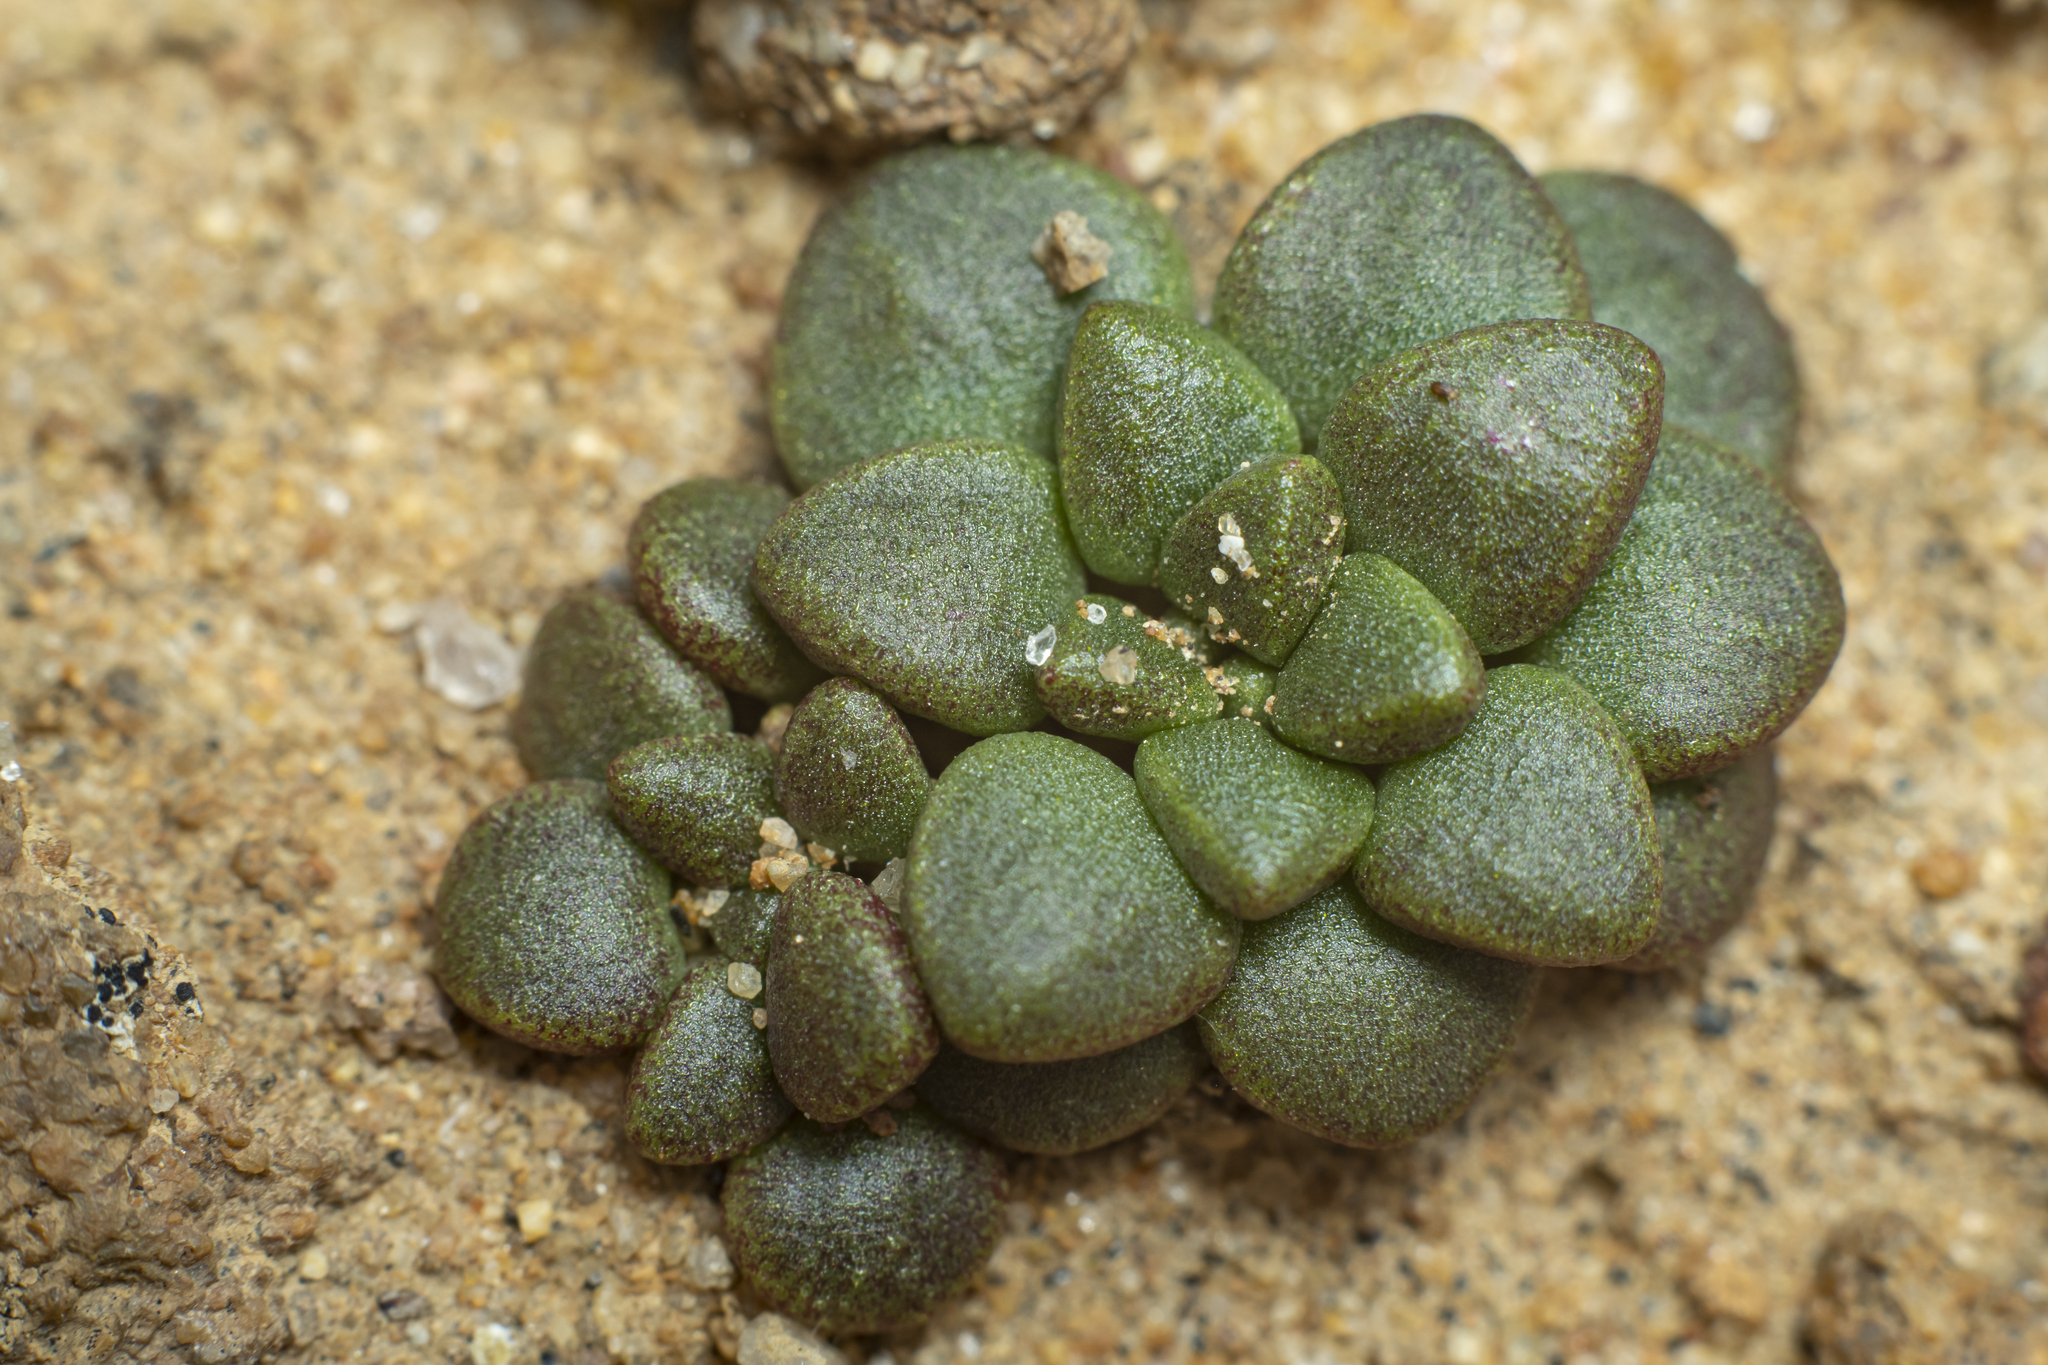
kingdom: Plantae
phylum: Tracheophyta
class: Magnoliopsida
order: Saxifragales
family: Crassulaceae
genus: Dudleya
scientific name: Dudleya blochmaniae
